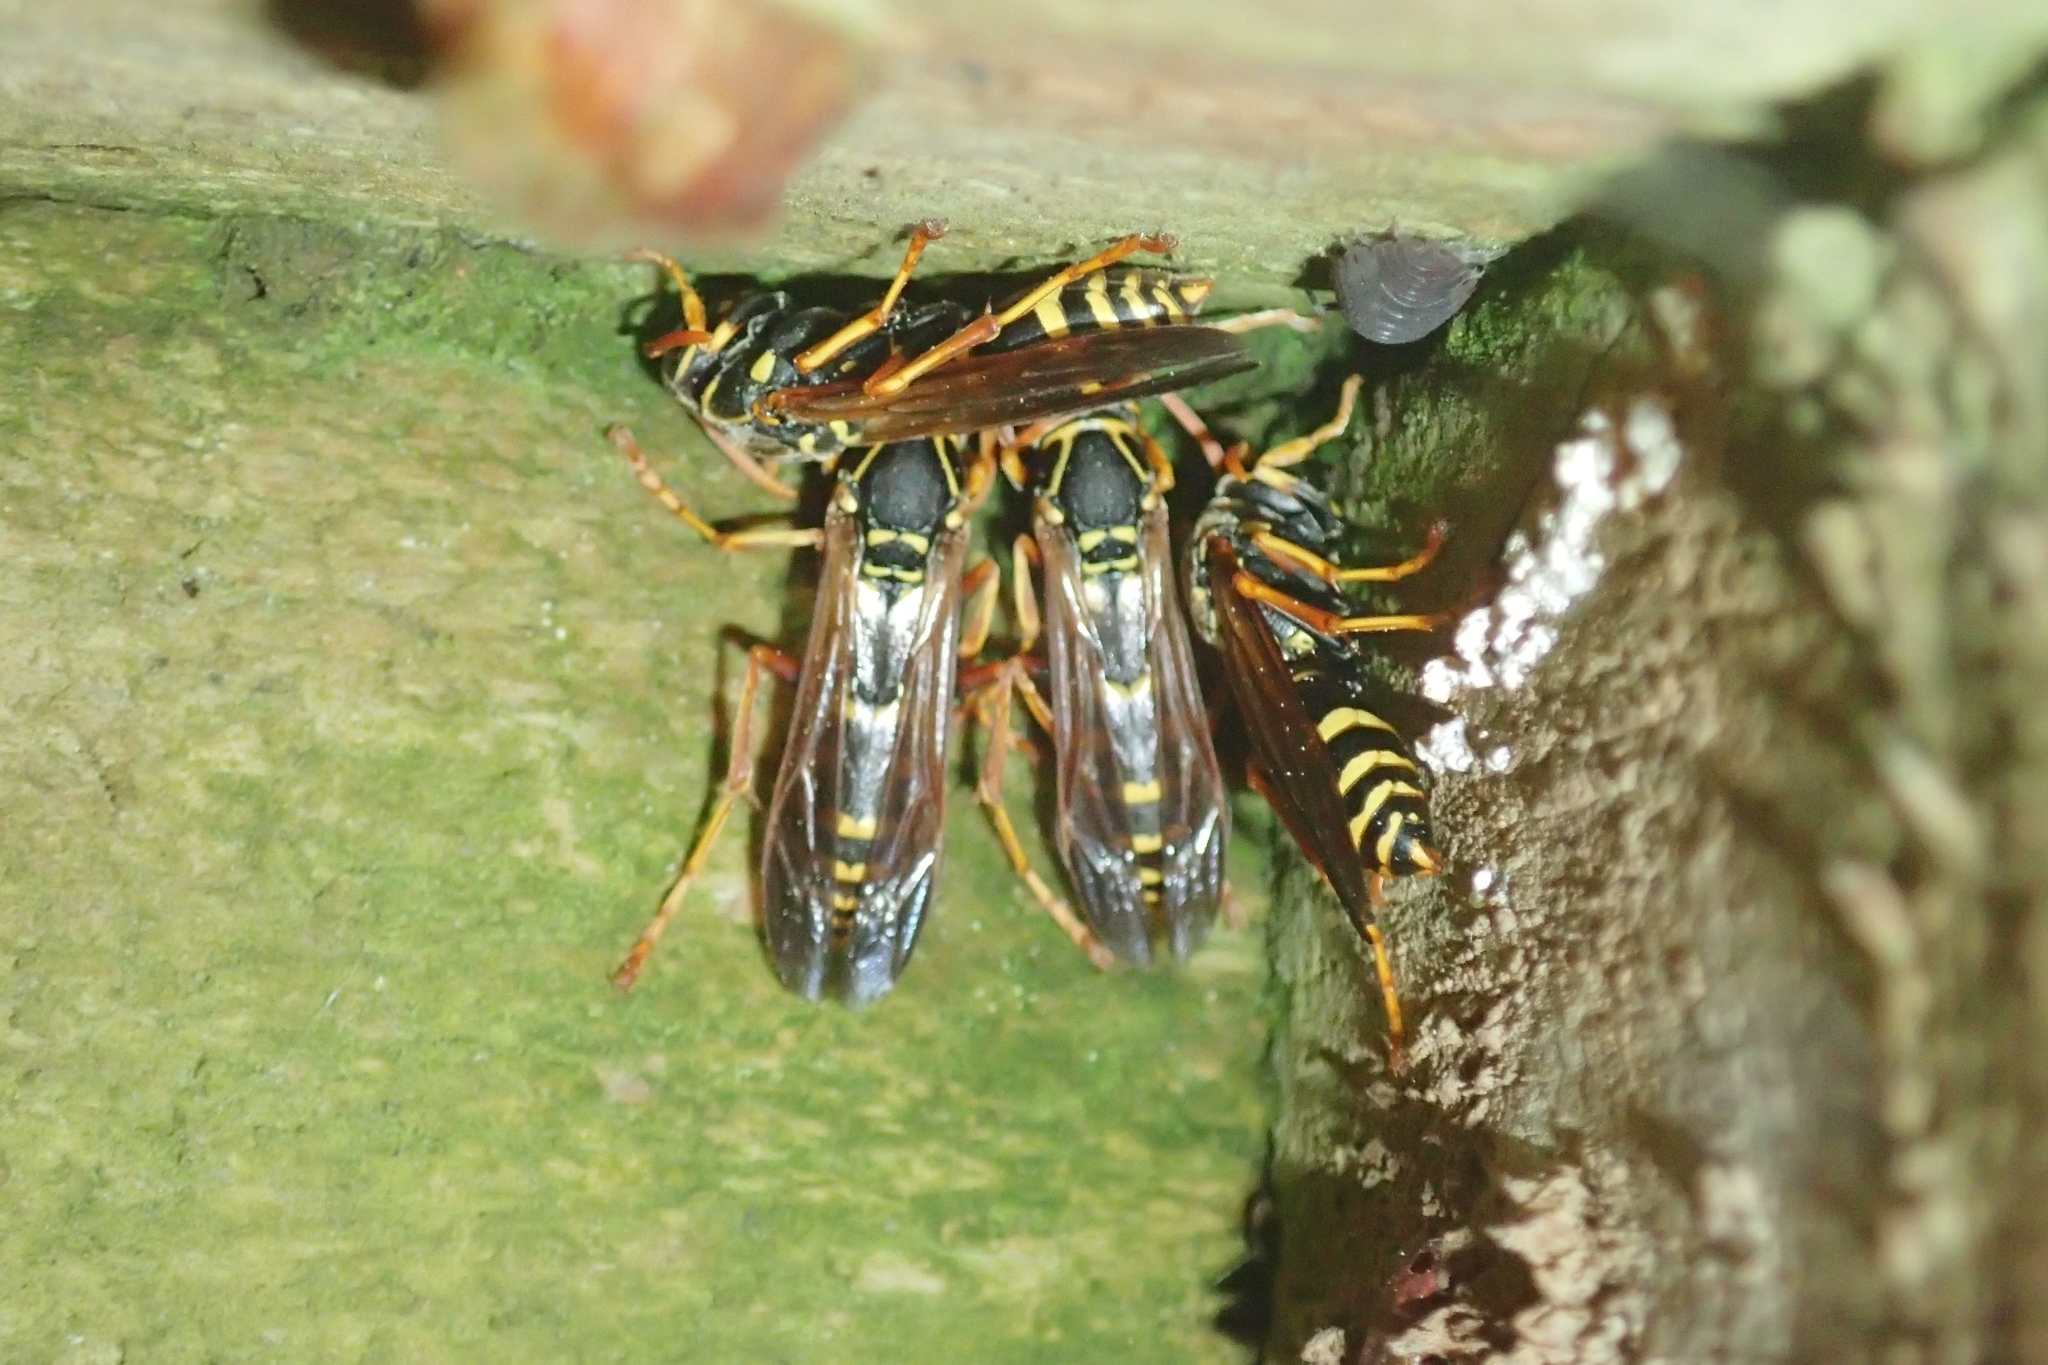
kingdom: Animalia
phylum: Arthropoda
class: Insecta
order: Hymenoptera
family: Eumenidae
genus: Polistes
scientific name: Polistes chinensis
